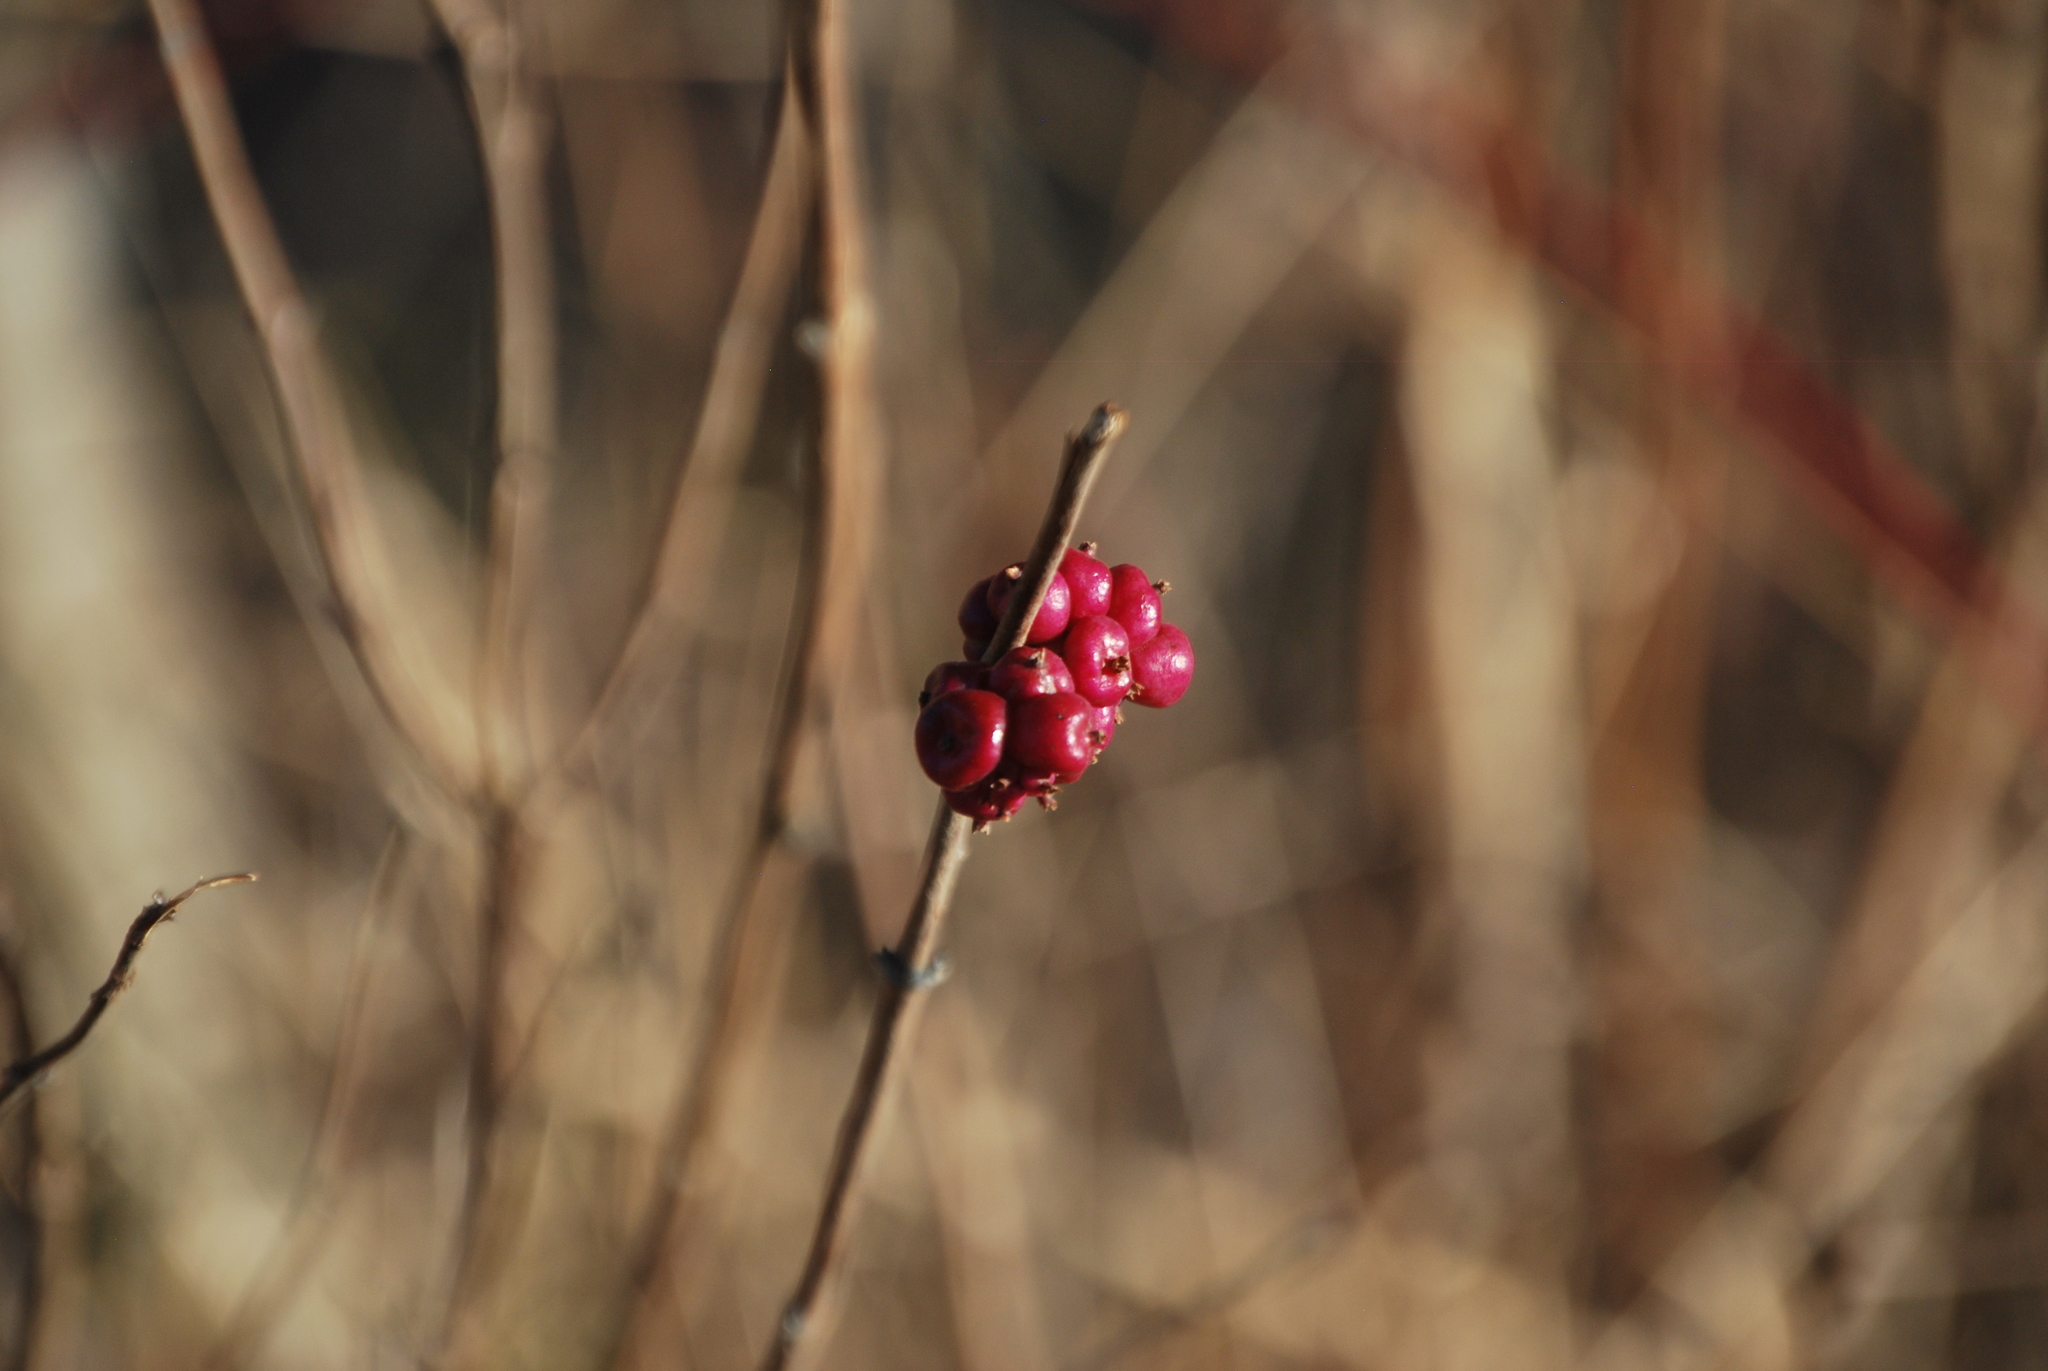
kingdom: Plantae
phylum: Tracheophyta
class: Magnoliopsida
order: Dipsacales
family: Caprifoliaceae
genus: Symphoricarpos
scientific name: Symphoricarpos orbiculatus
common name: Coralberry
